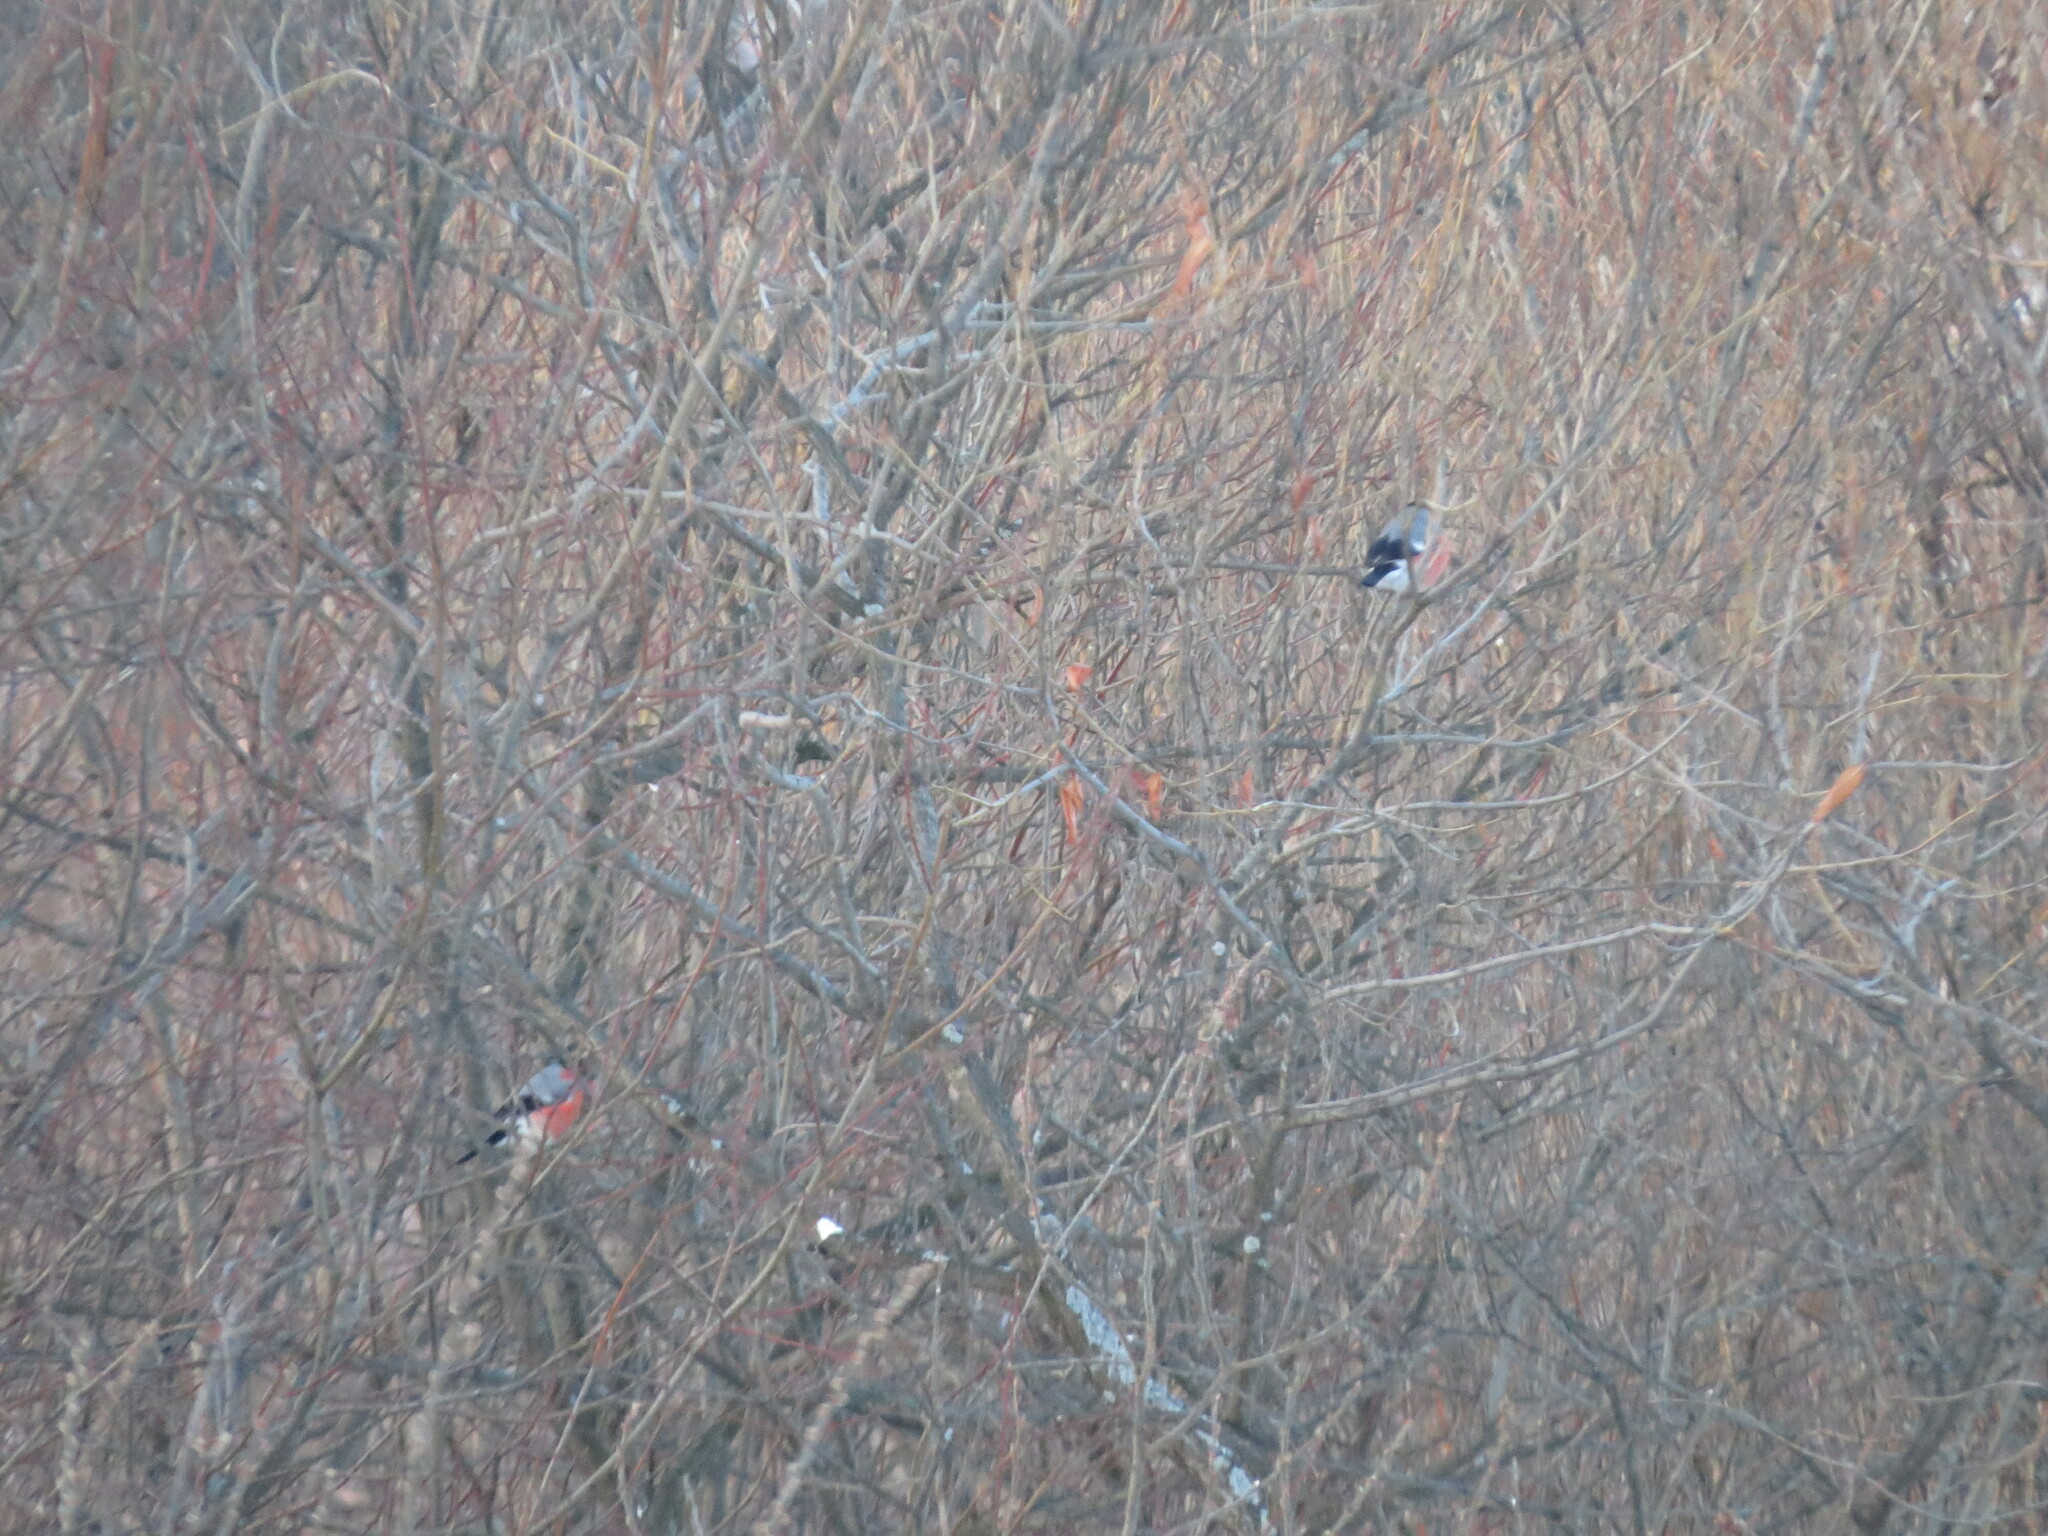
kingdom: Animalia
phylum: Chordata
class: Aves
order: Passeriformes
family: Fringillidae
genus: Pyrrhula
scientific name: Pyrrhula pyrrhula
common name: Eurasian bullfinch
